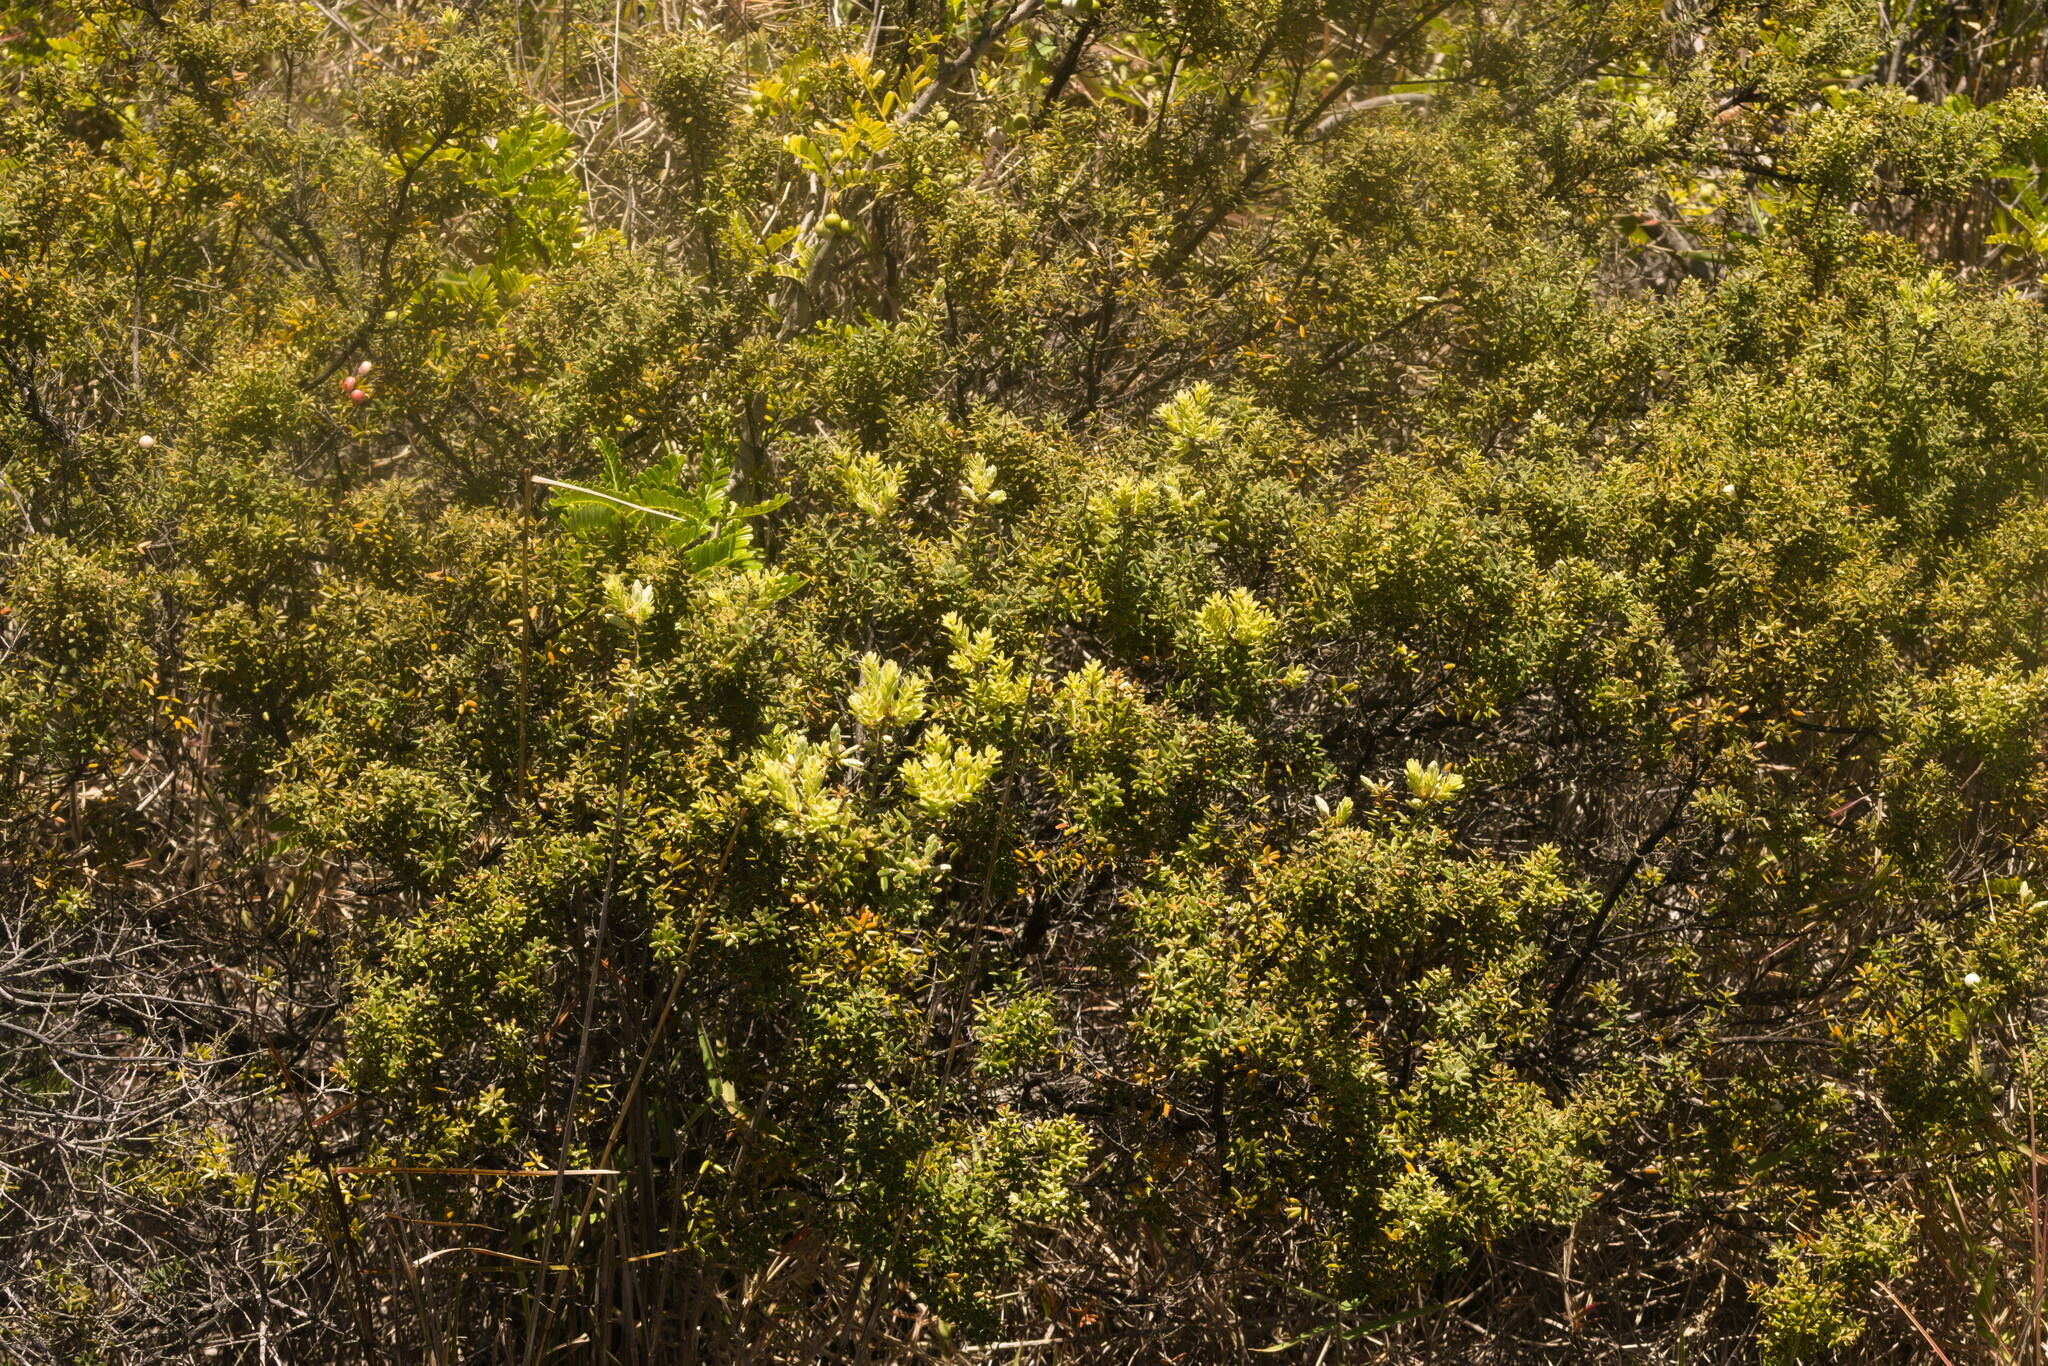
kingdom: Plantae
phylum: Tracheophyta
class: Magnoliopsida
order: Ericales
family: Ericaceae
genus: Leptecophylla
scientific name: Leptecophylla tameiameiae
